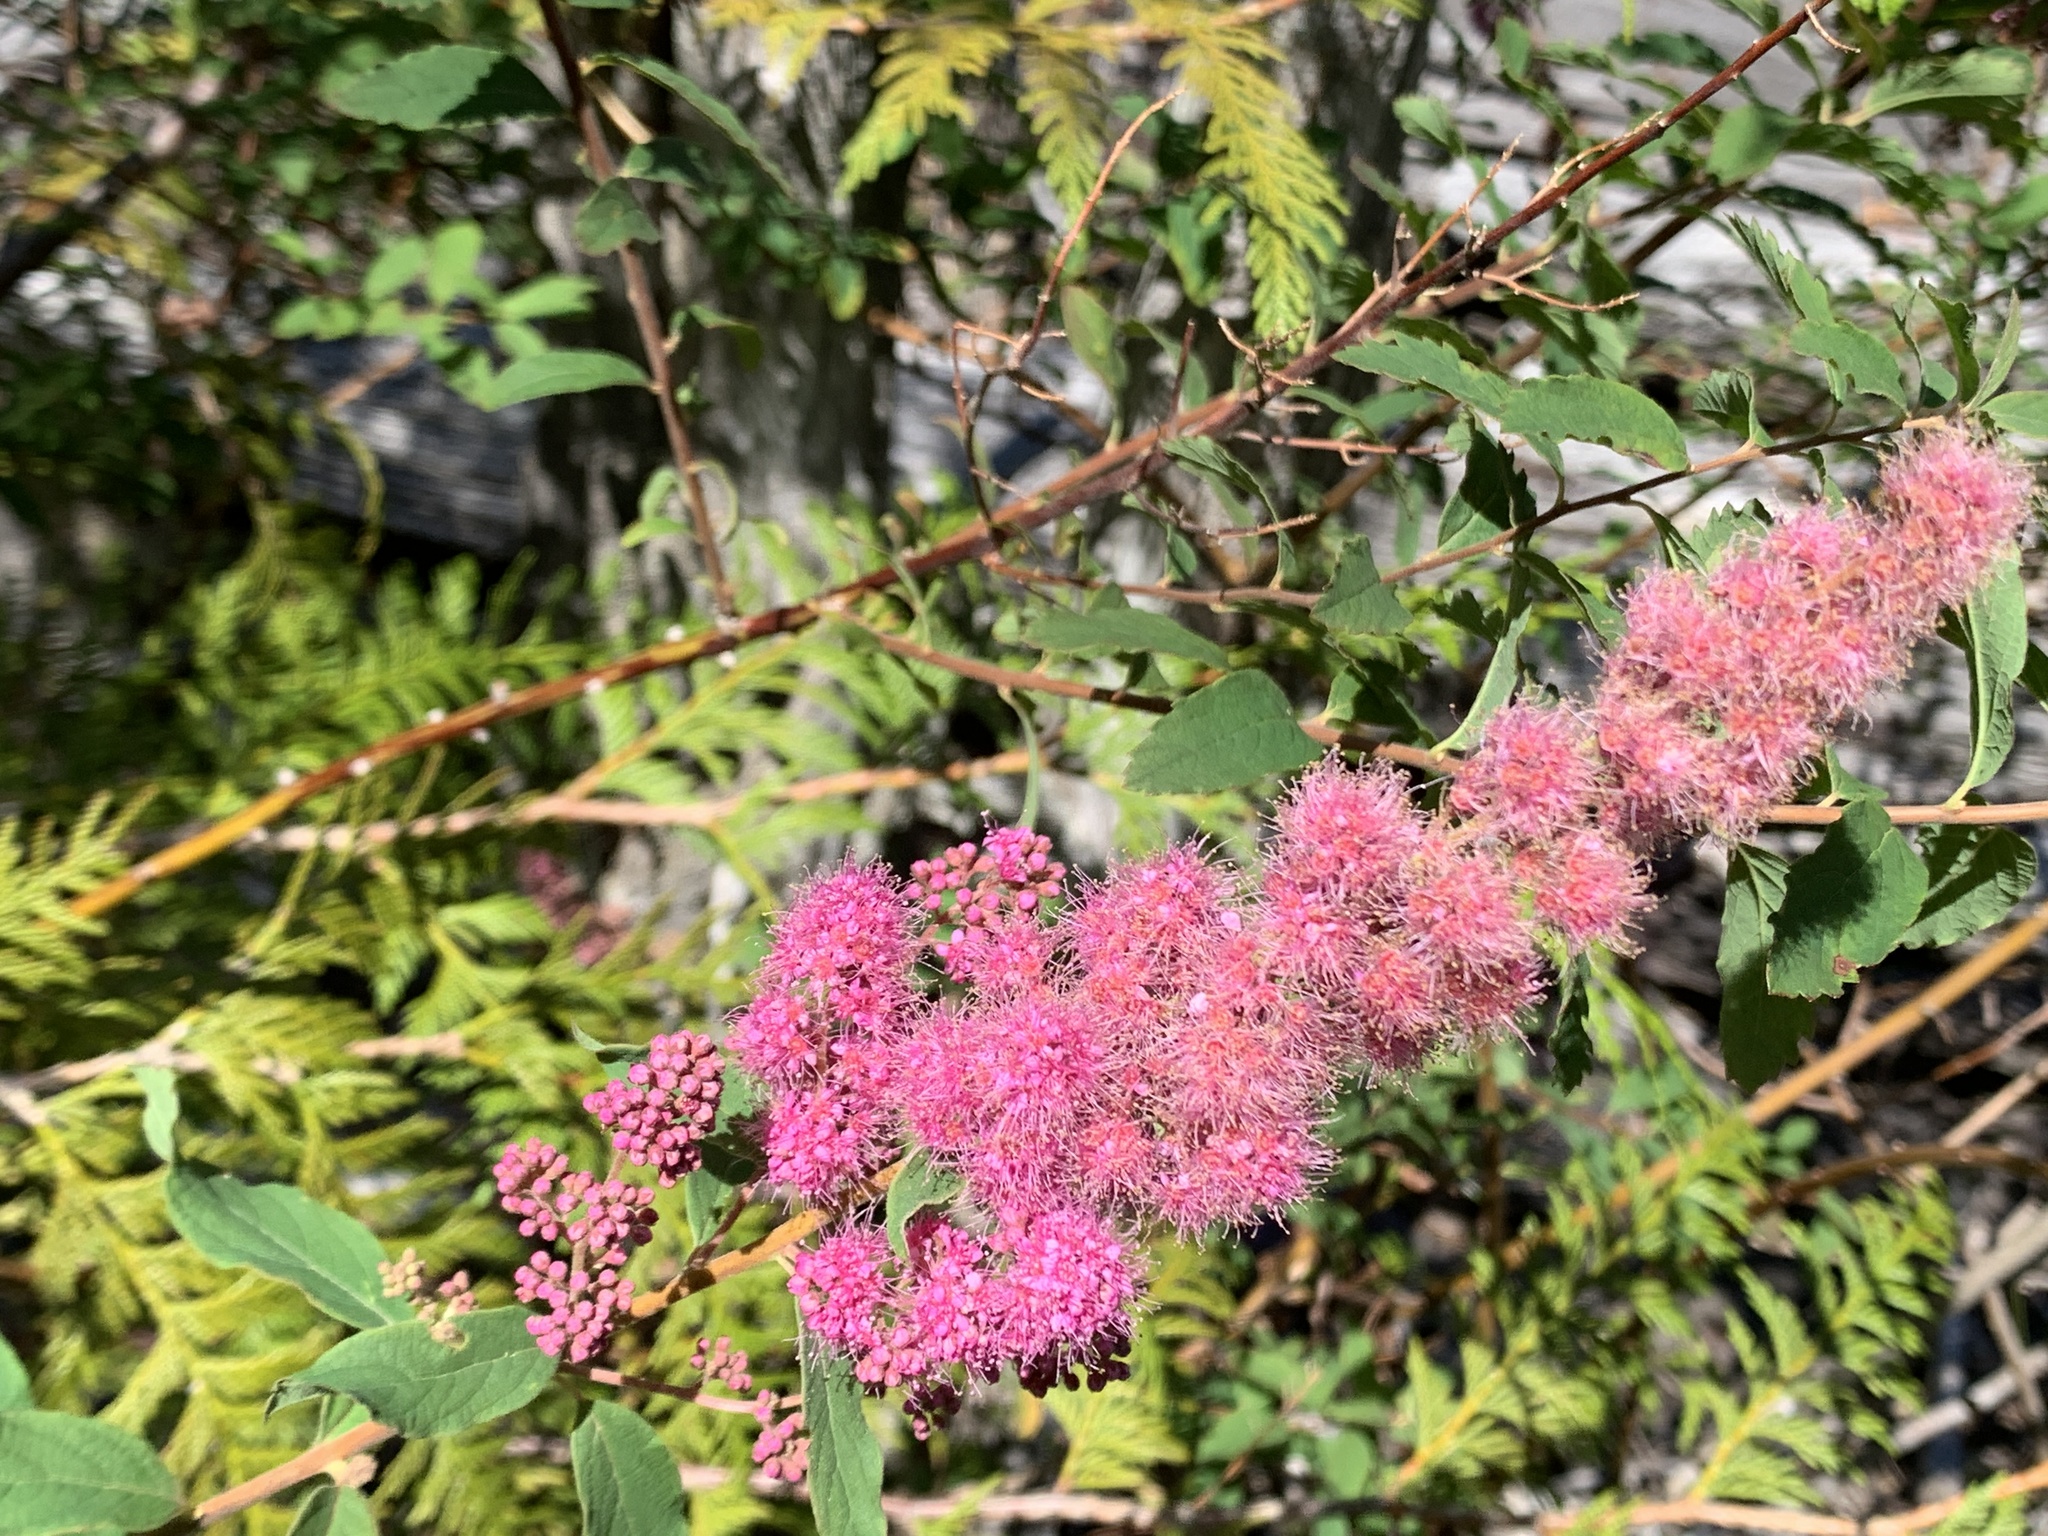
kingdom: Plantae
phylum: Tracheophyta
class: Magnoliopsida
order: Rosales
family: Rosaceae
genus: Spiraea
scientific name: Spiraea douglasii
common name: Steeplebush
